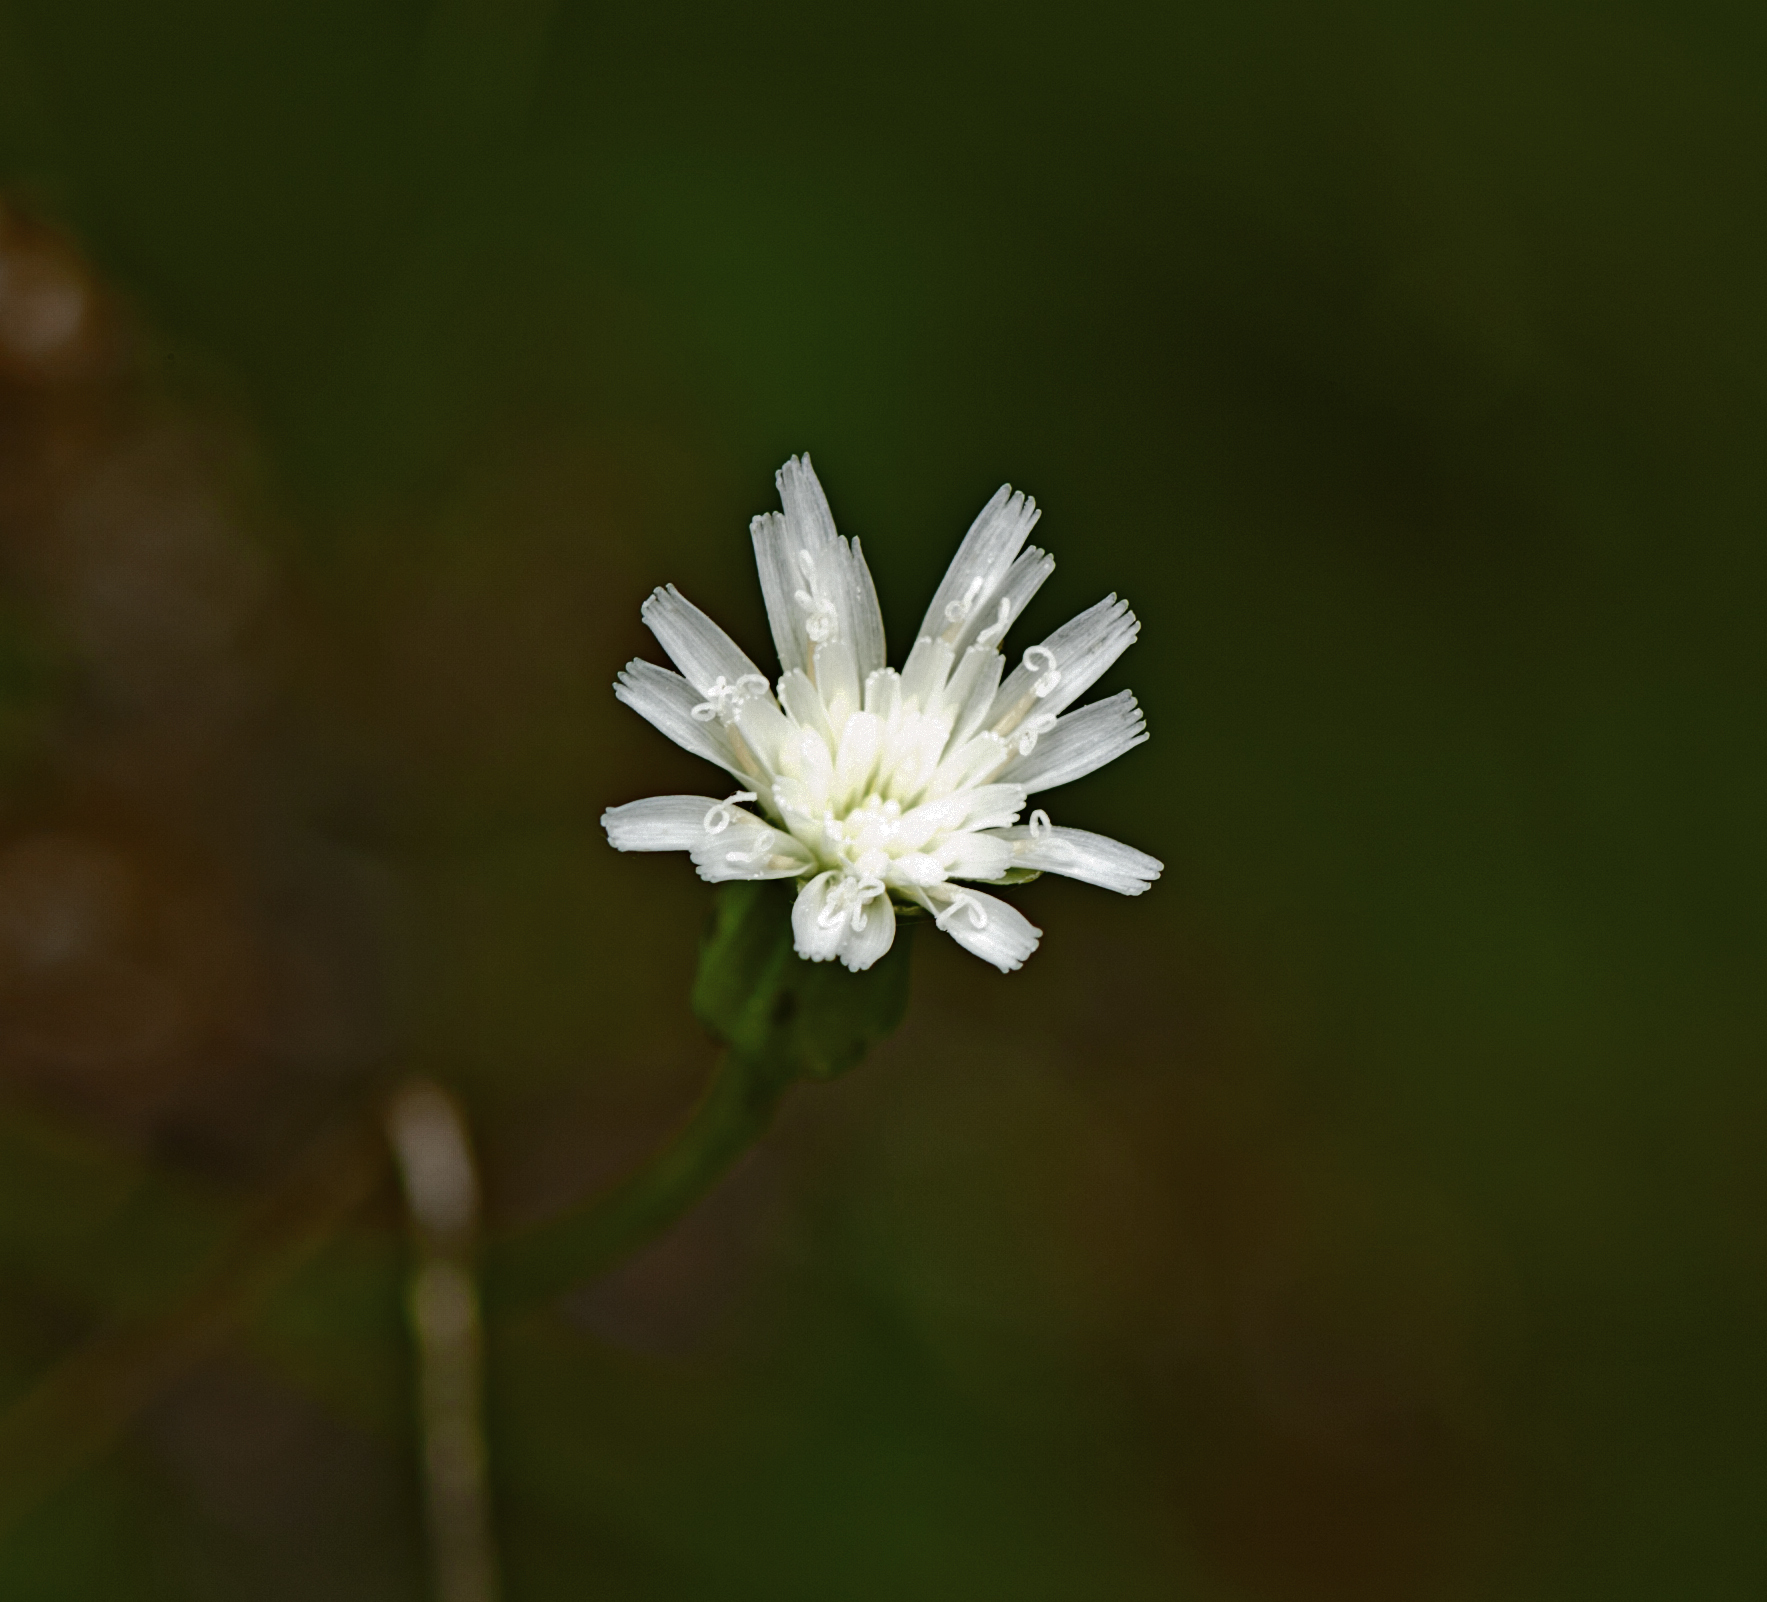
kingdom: Plantae
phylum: Tracheophyta
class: Magnoliopsida
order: Asterales
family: Asteraceae
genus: Hypochaeris
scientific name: Hypochaeris albiflora
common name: White flatweed
